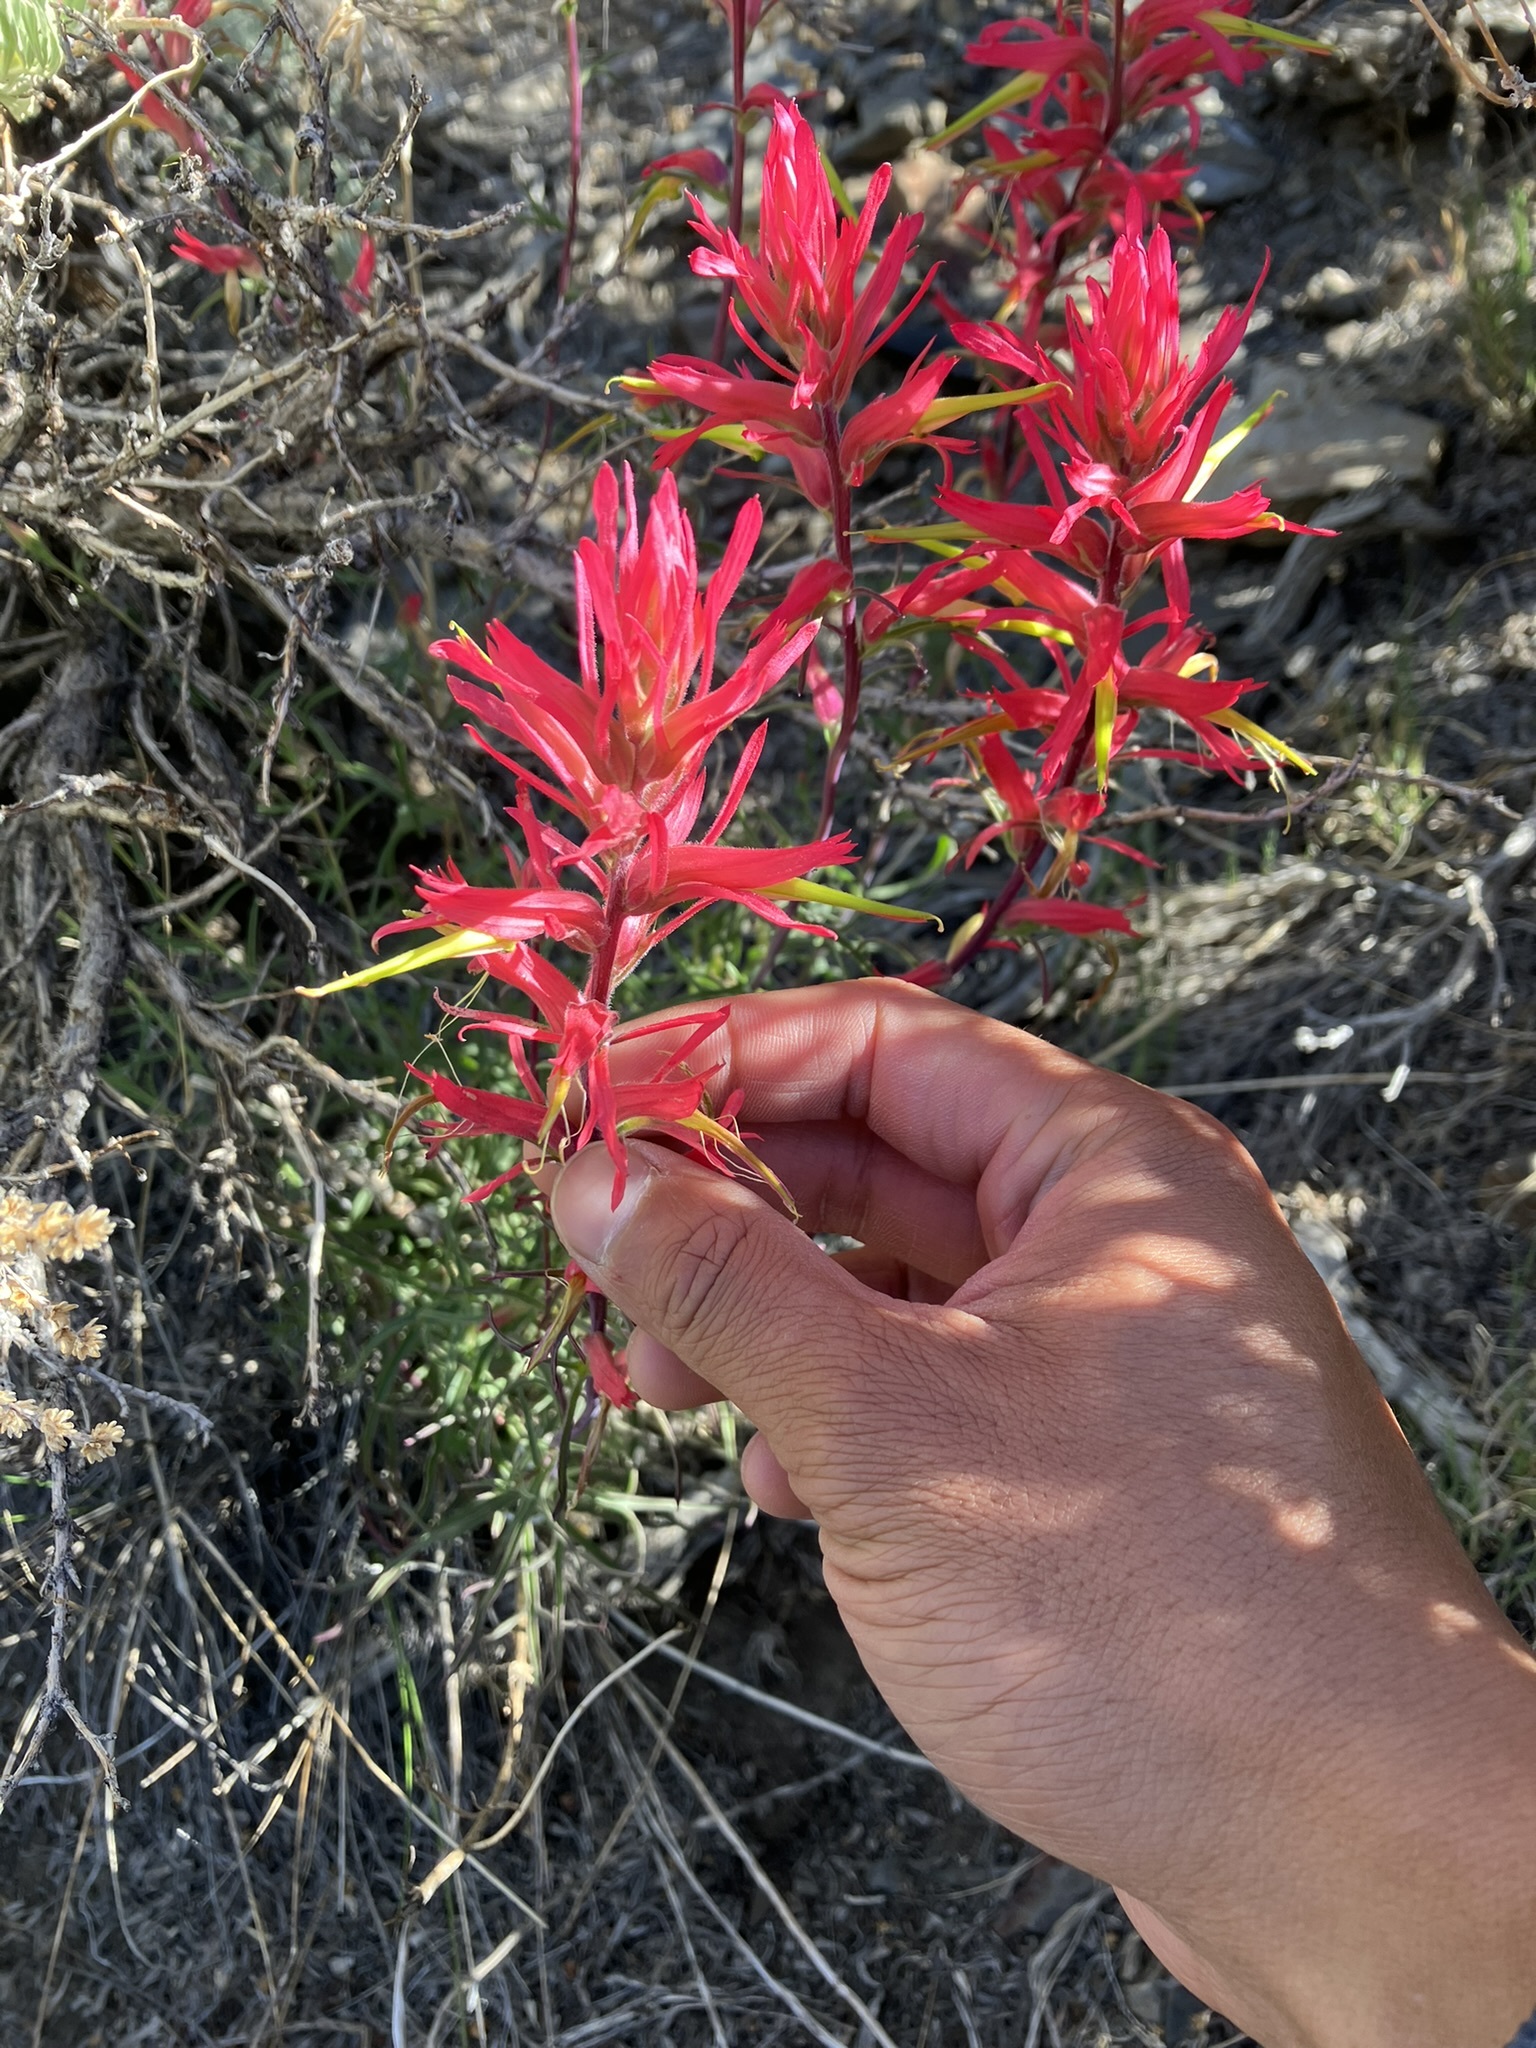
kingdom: Plantae
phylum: Tracheophyta
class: Magnoliopsida
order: Lamiales
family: Orobanchaceae
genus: Castilleja
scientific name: Castilleja linariifolia
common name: Wyoming paintbrush
